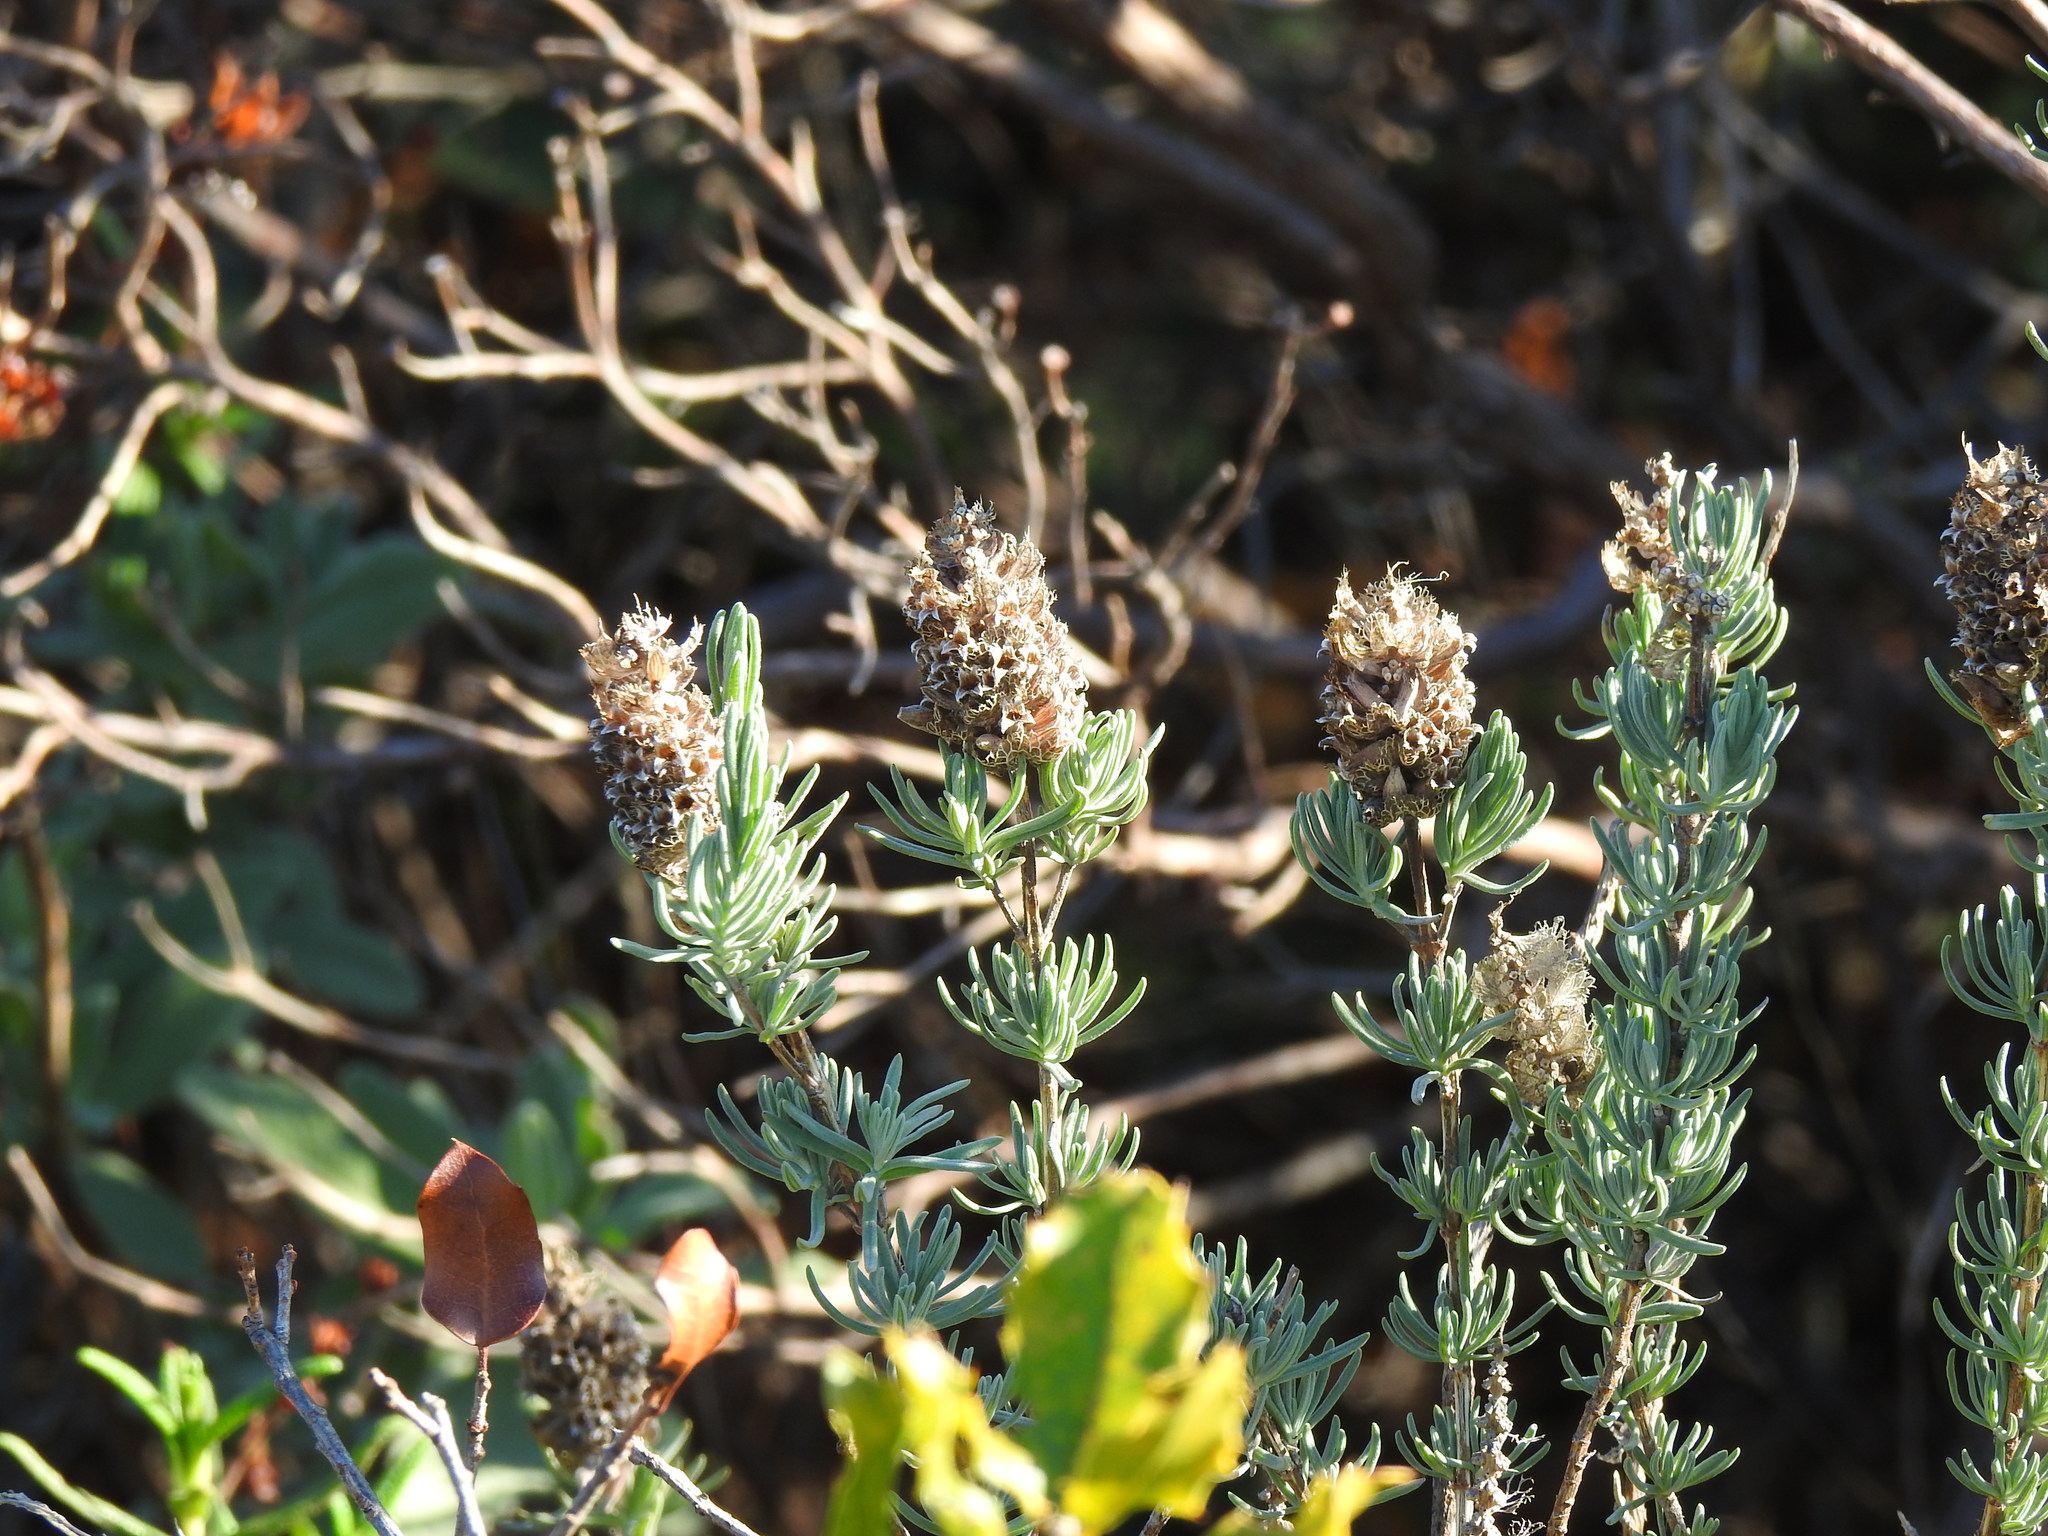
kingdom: Plantae
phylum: Tracheophyta
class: Magnoliopsida
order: Lamiales
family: Lamiaceae
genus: Lavandula
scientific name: Lavandula stoechas
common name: French lavender
